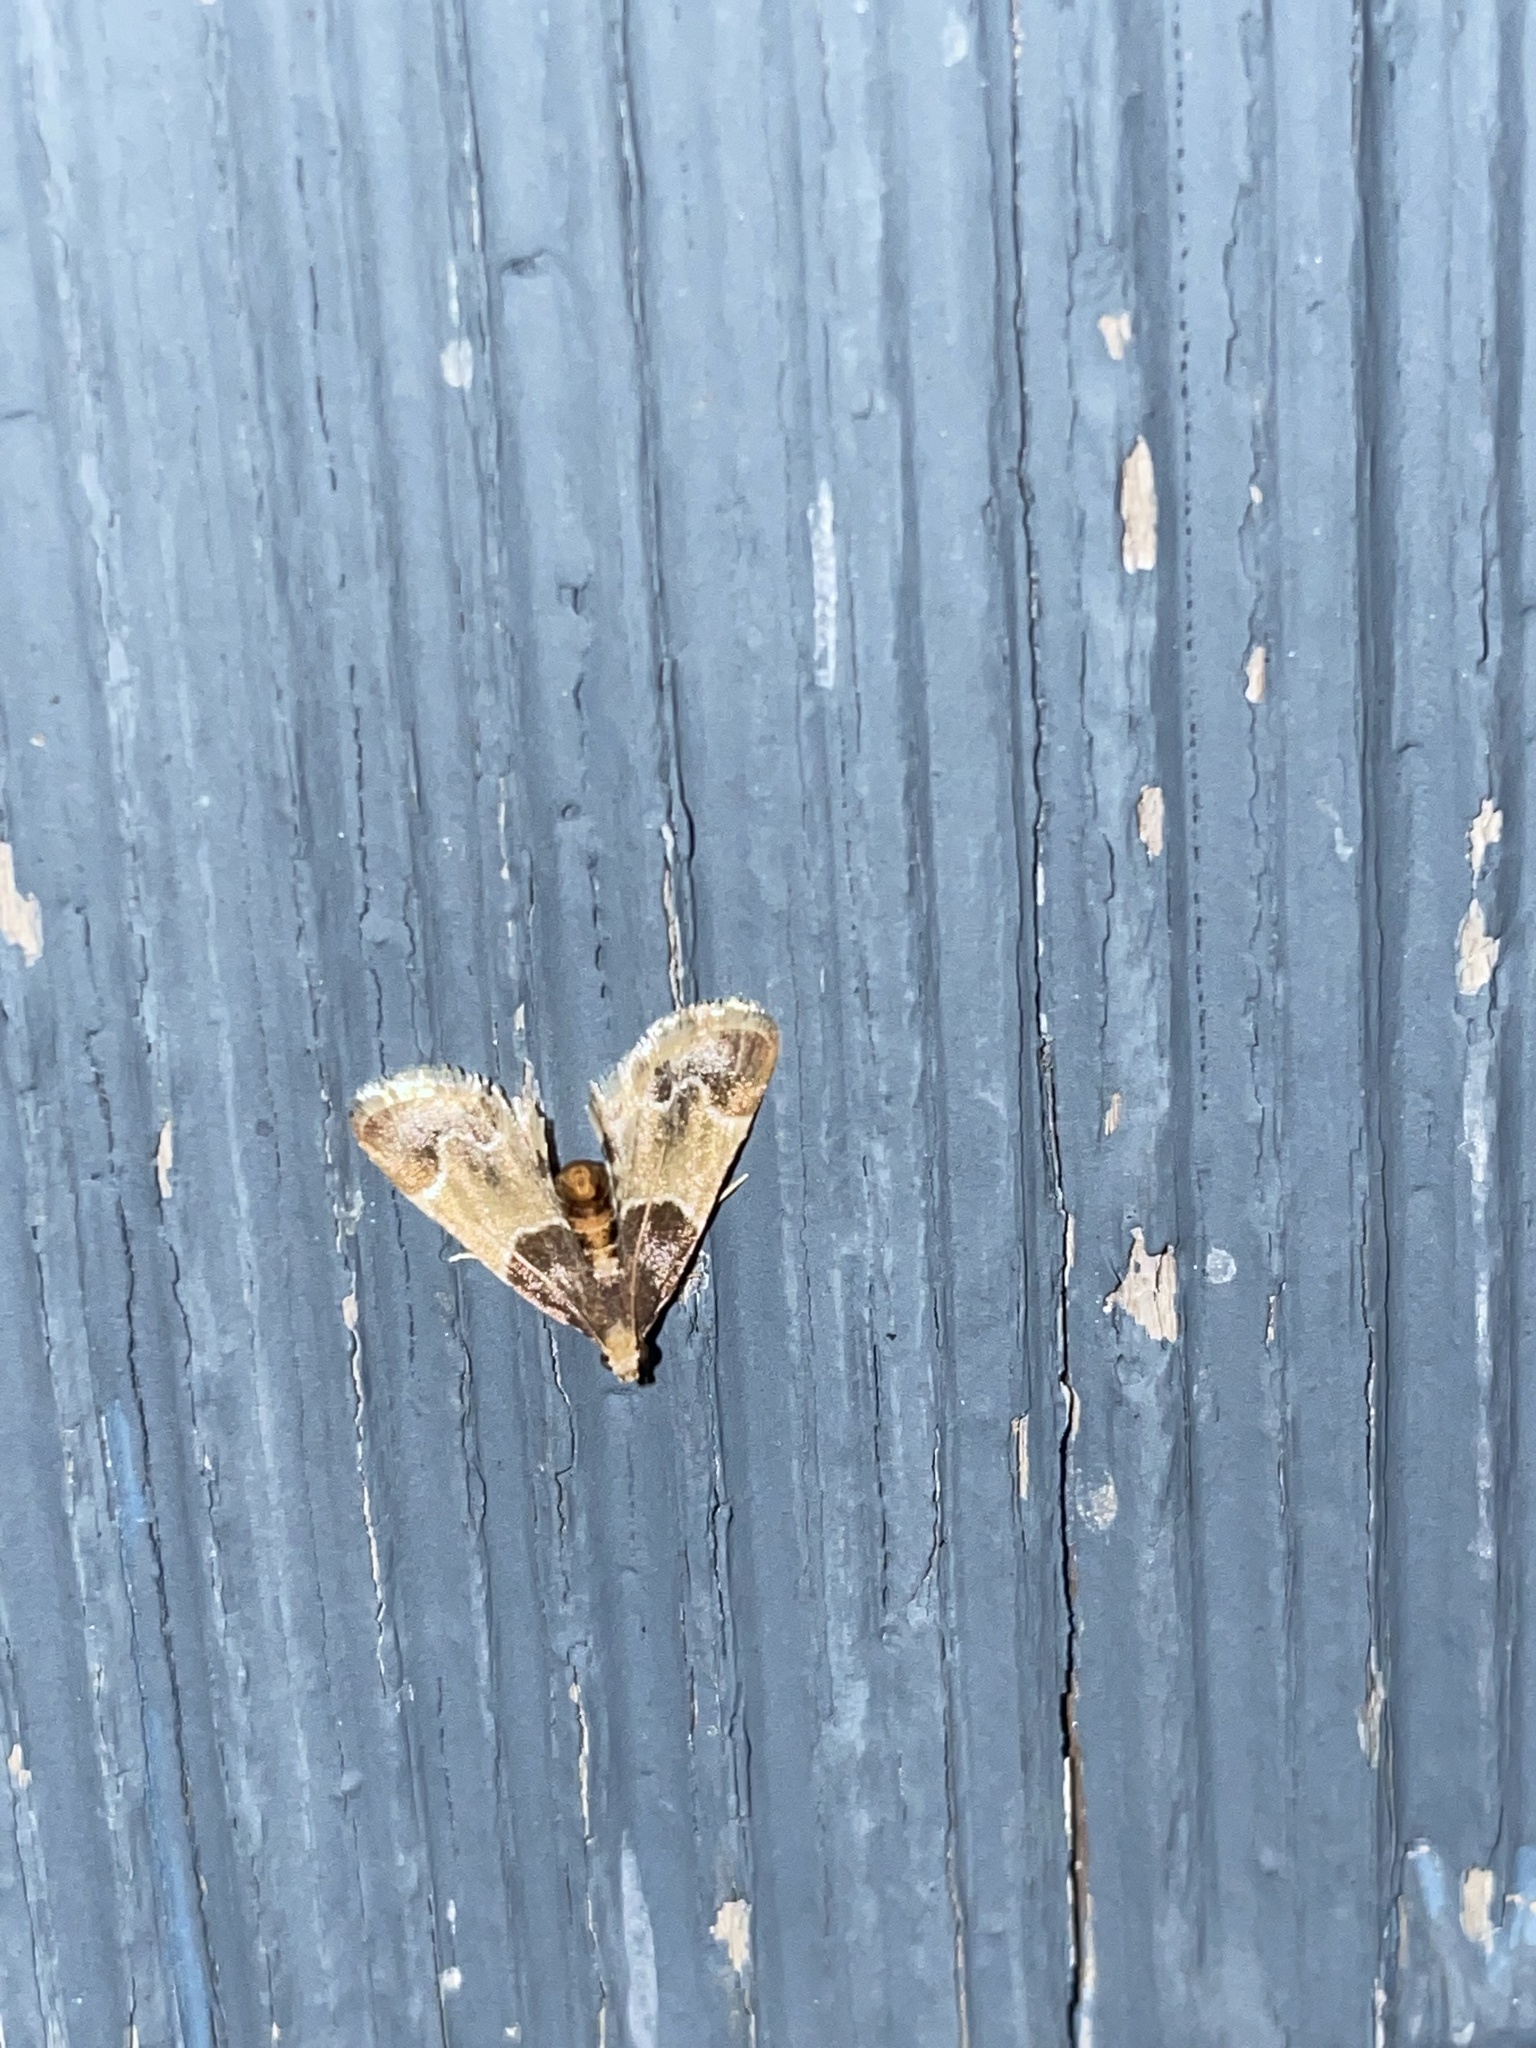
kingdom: Animalia
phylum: Arthropoda
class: Insecta
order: Lepidoptera
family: Pyralidae
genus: Pyralis
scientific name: Pyralis farinalis
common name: Meal moth
